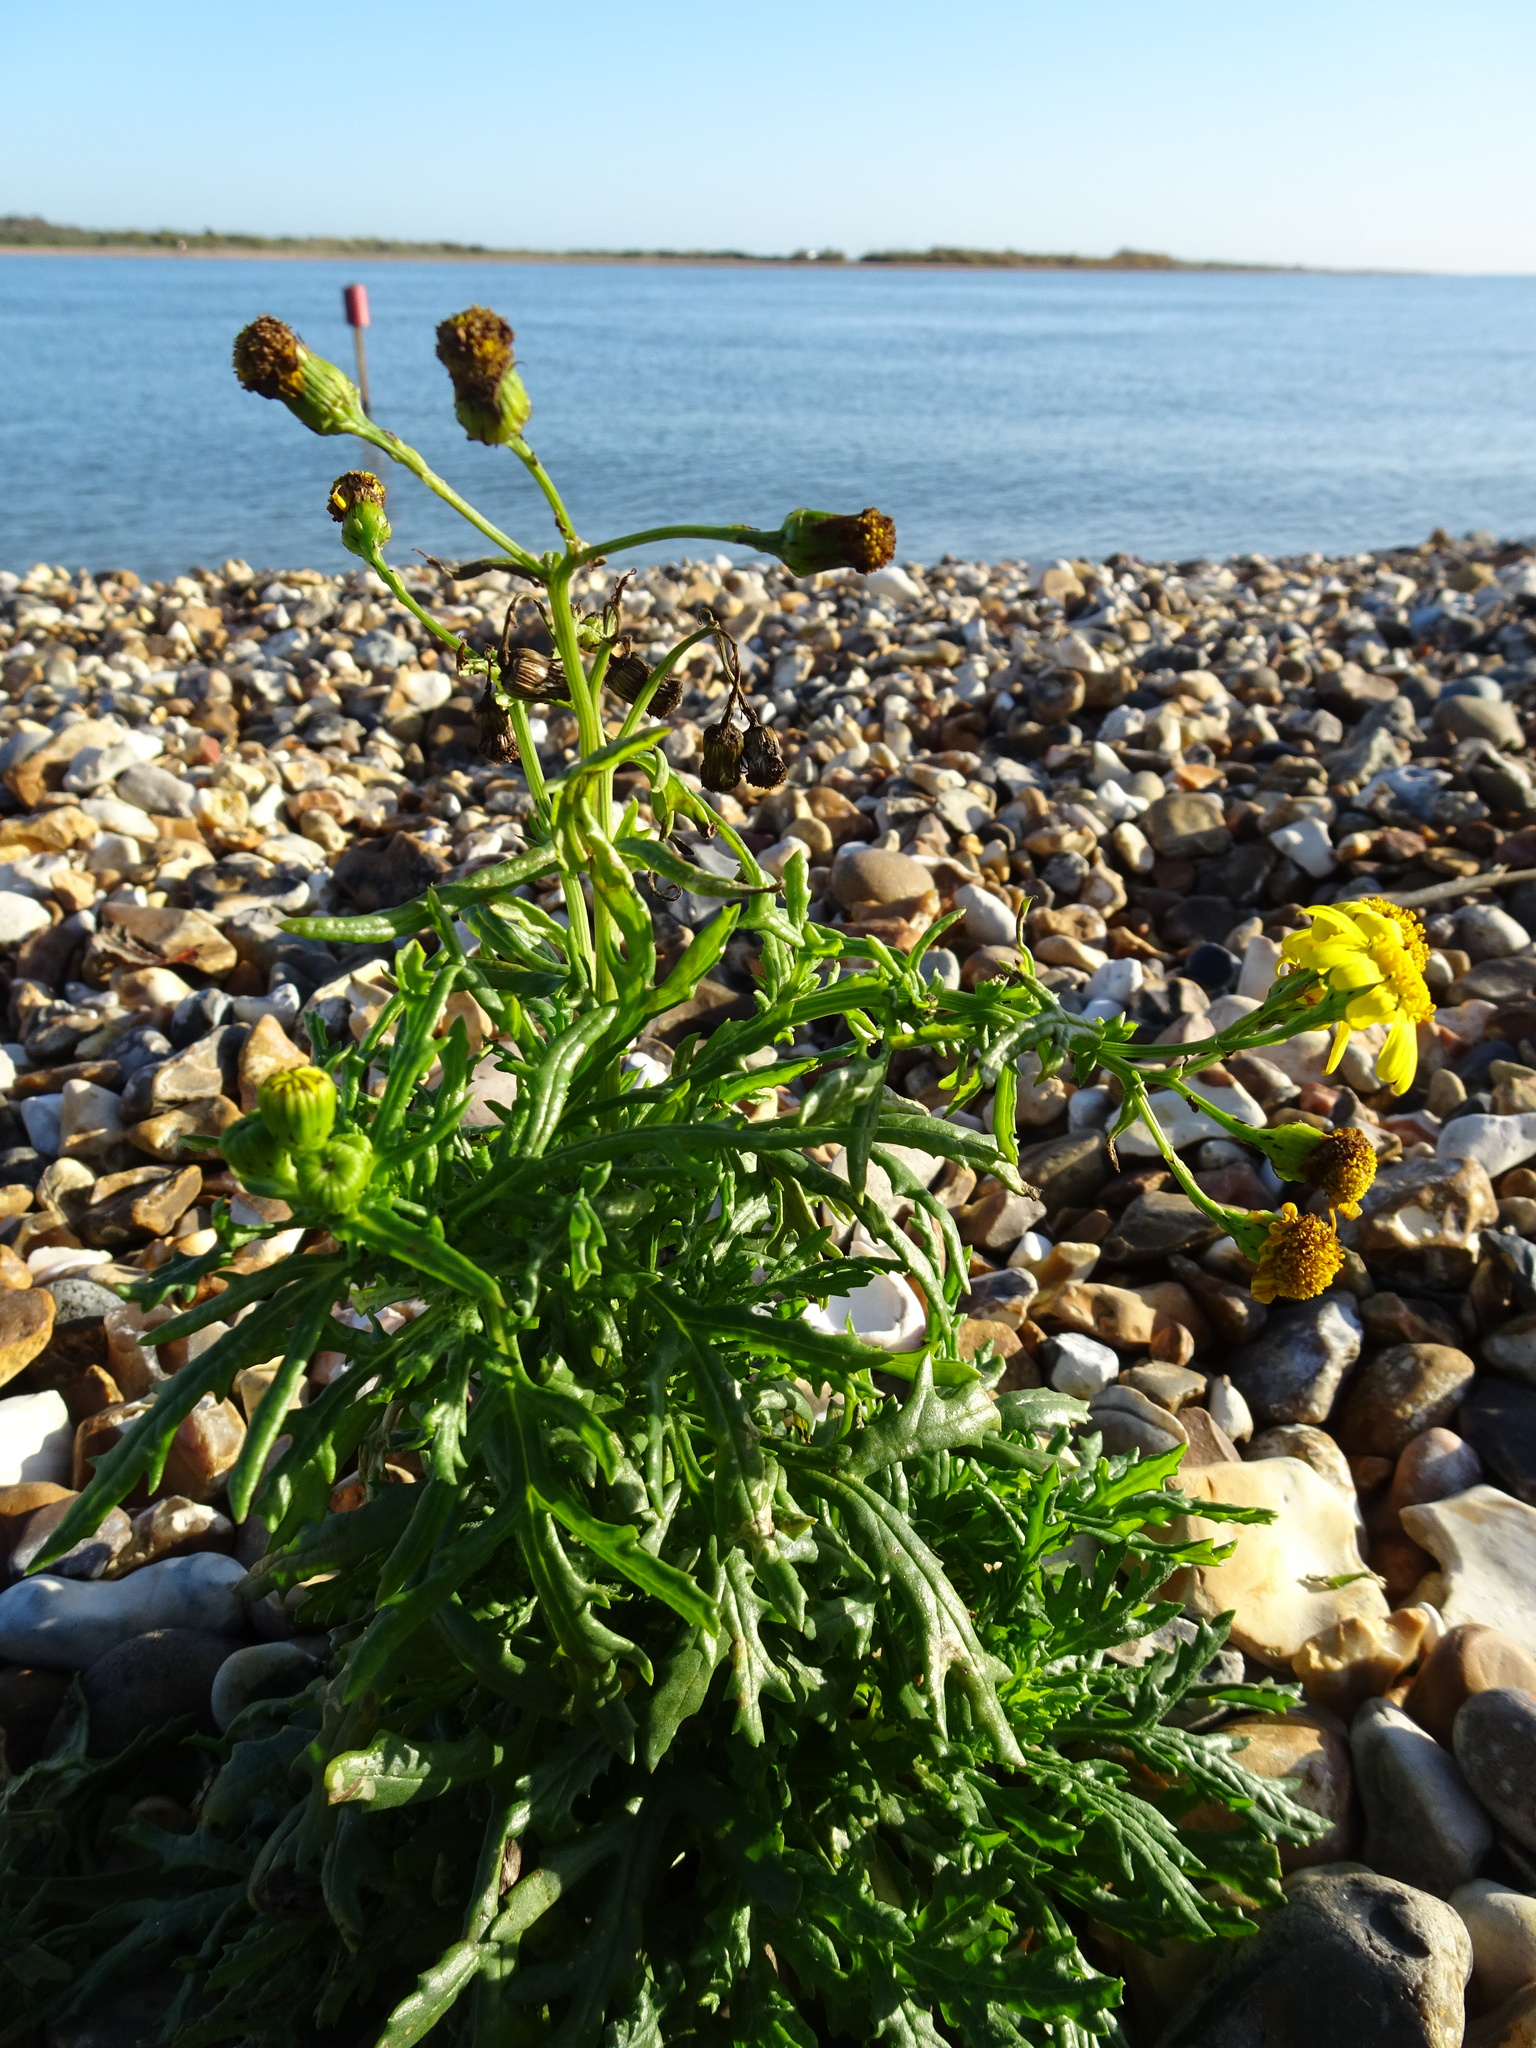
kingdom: Plantae
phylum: Tracheophyta
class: Magnoliopsida
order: Asterales
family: Asteraceae
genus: Senecio
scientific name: Senecio squalidus
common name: Oxford ragwort
